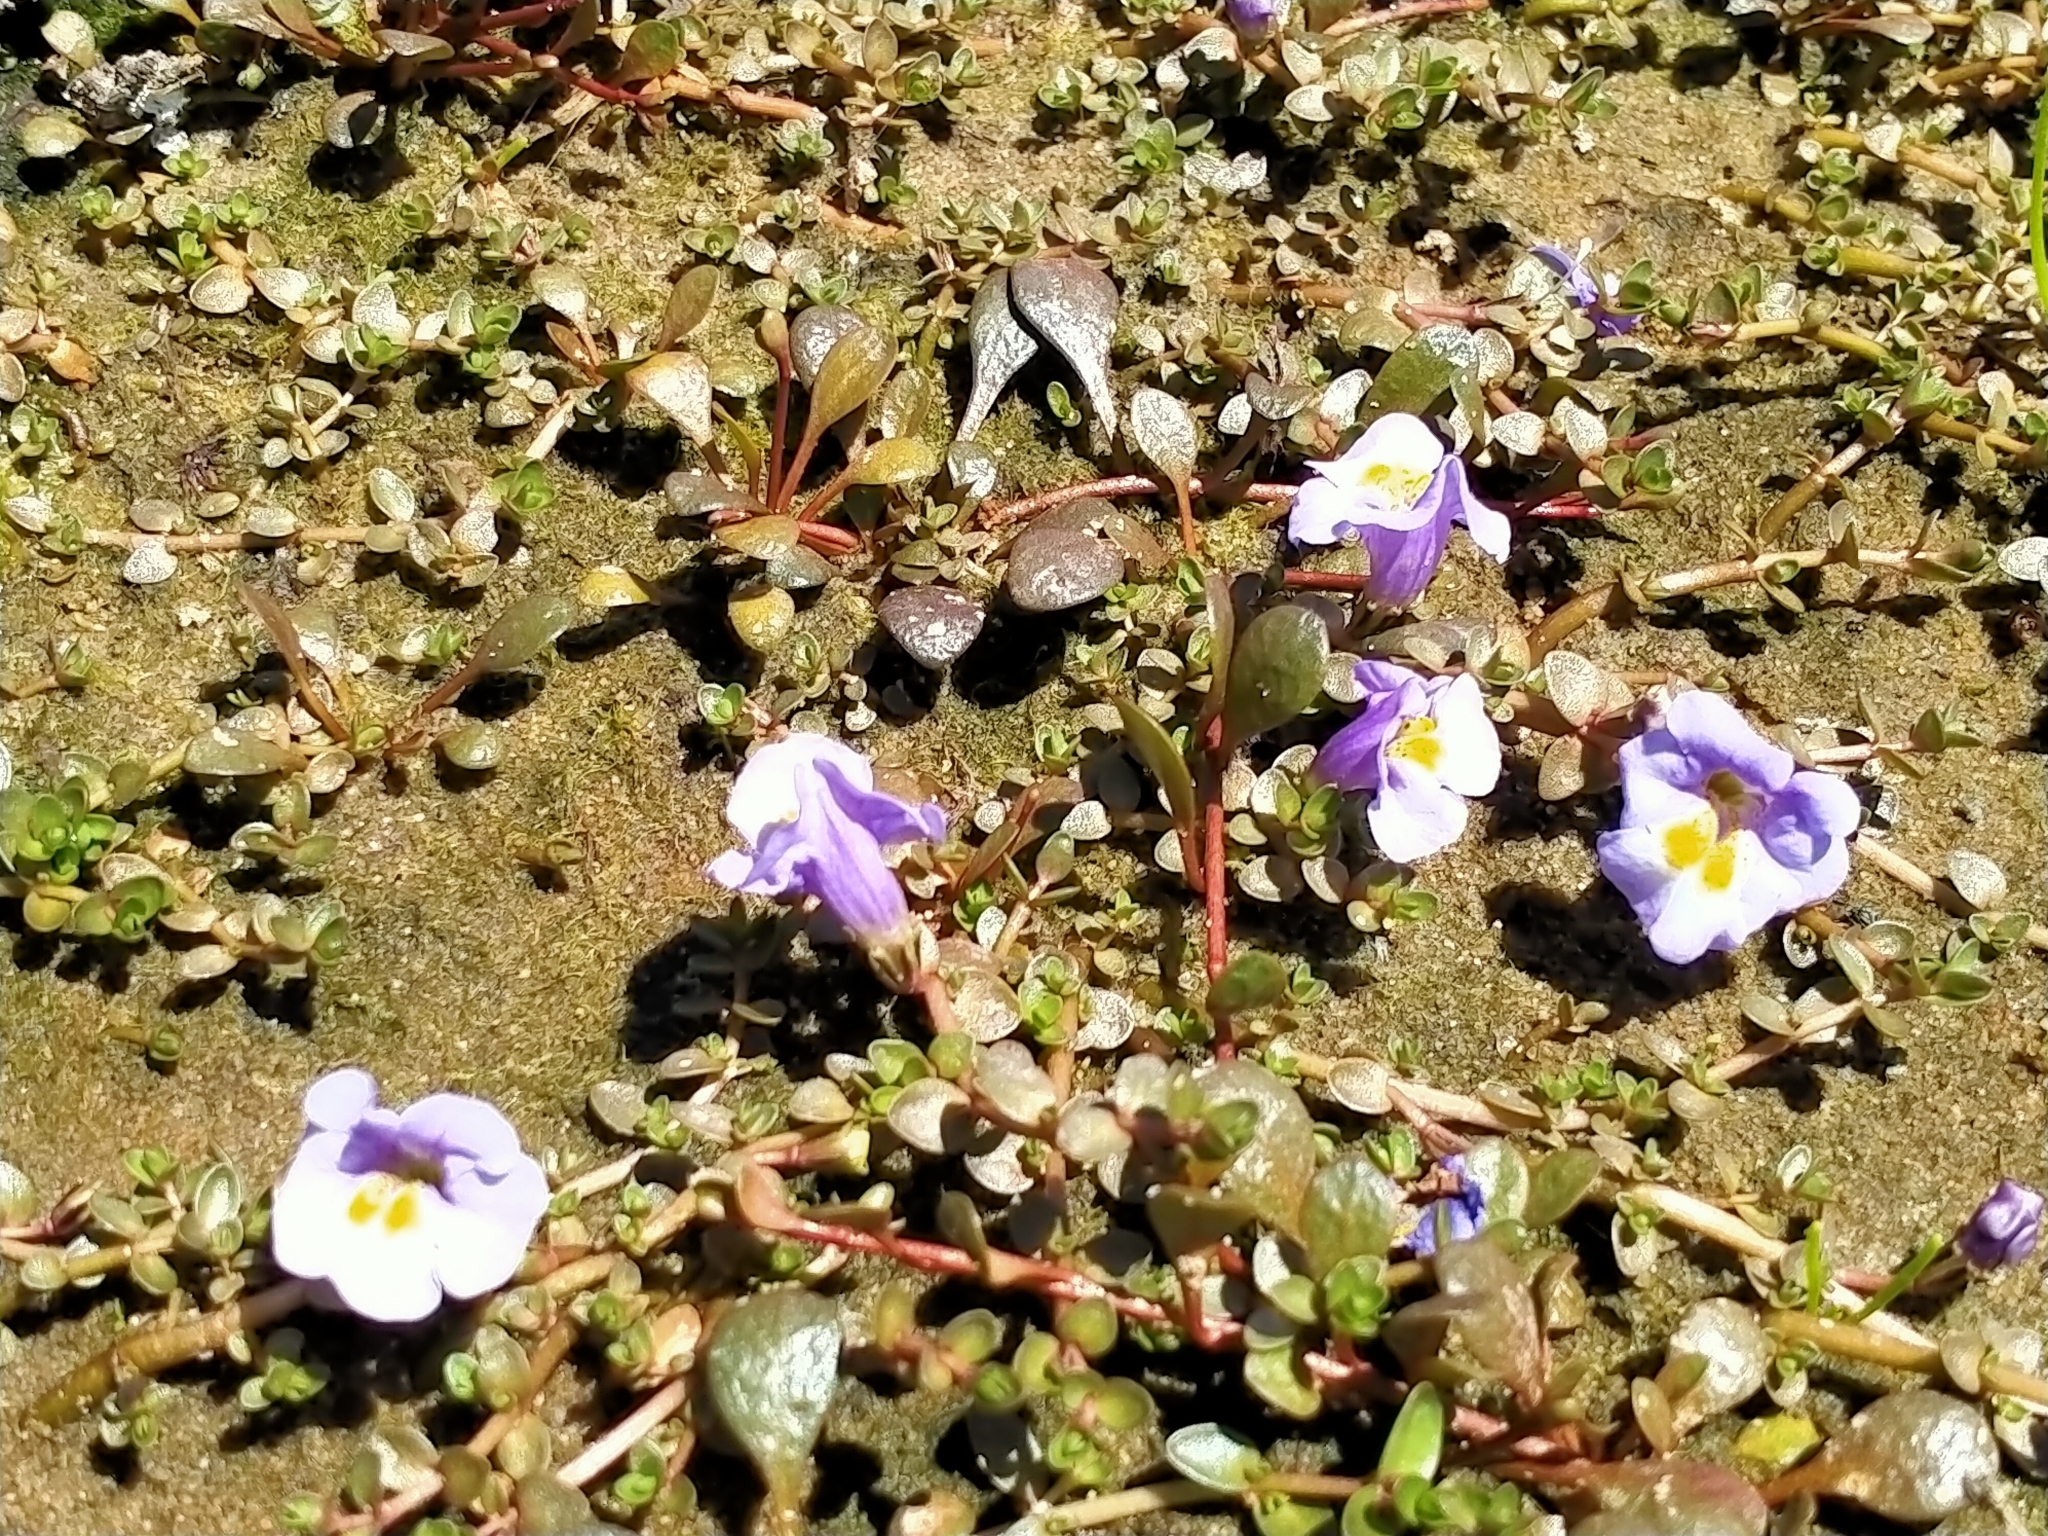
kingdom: Plantae
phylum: Tracheophyta
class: Magnoliopsida
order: Lamiales
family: Phrymaceae
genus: Thyridia
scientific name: Thyridia repens
